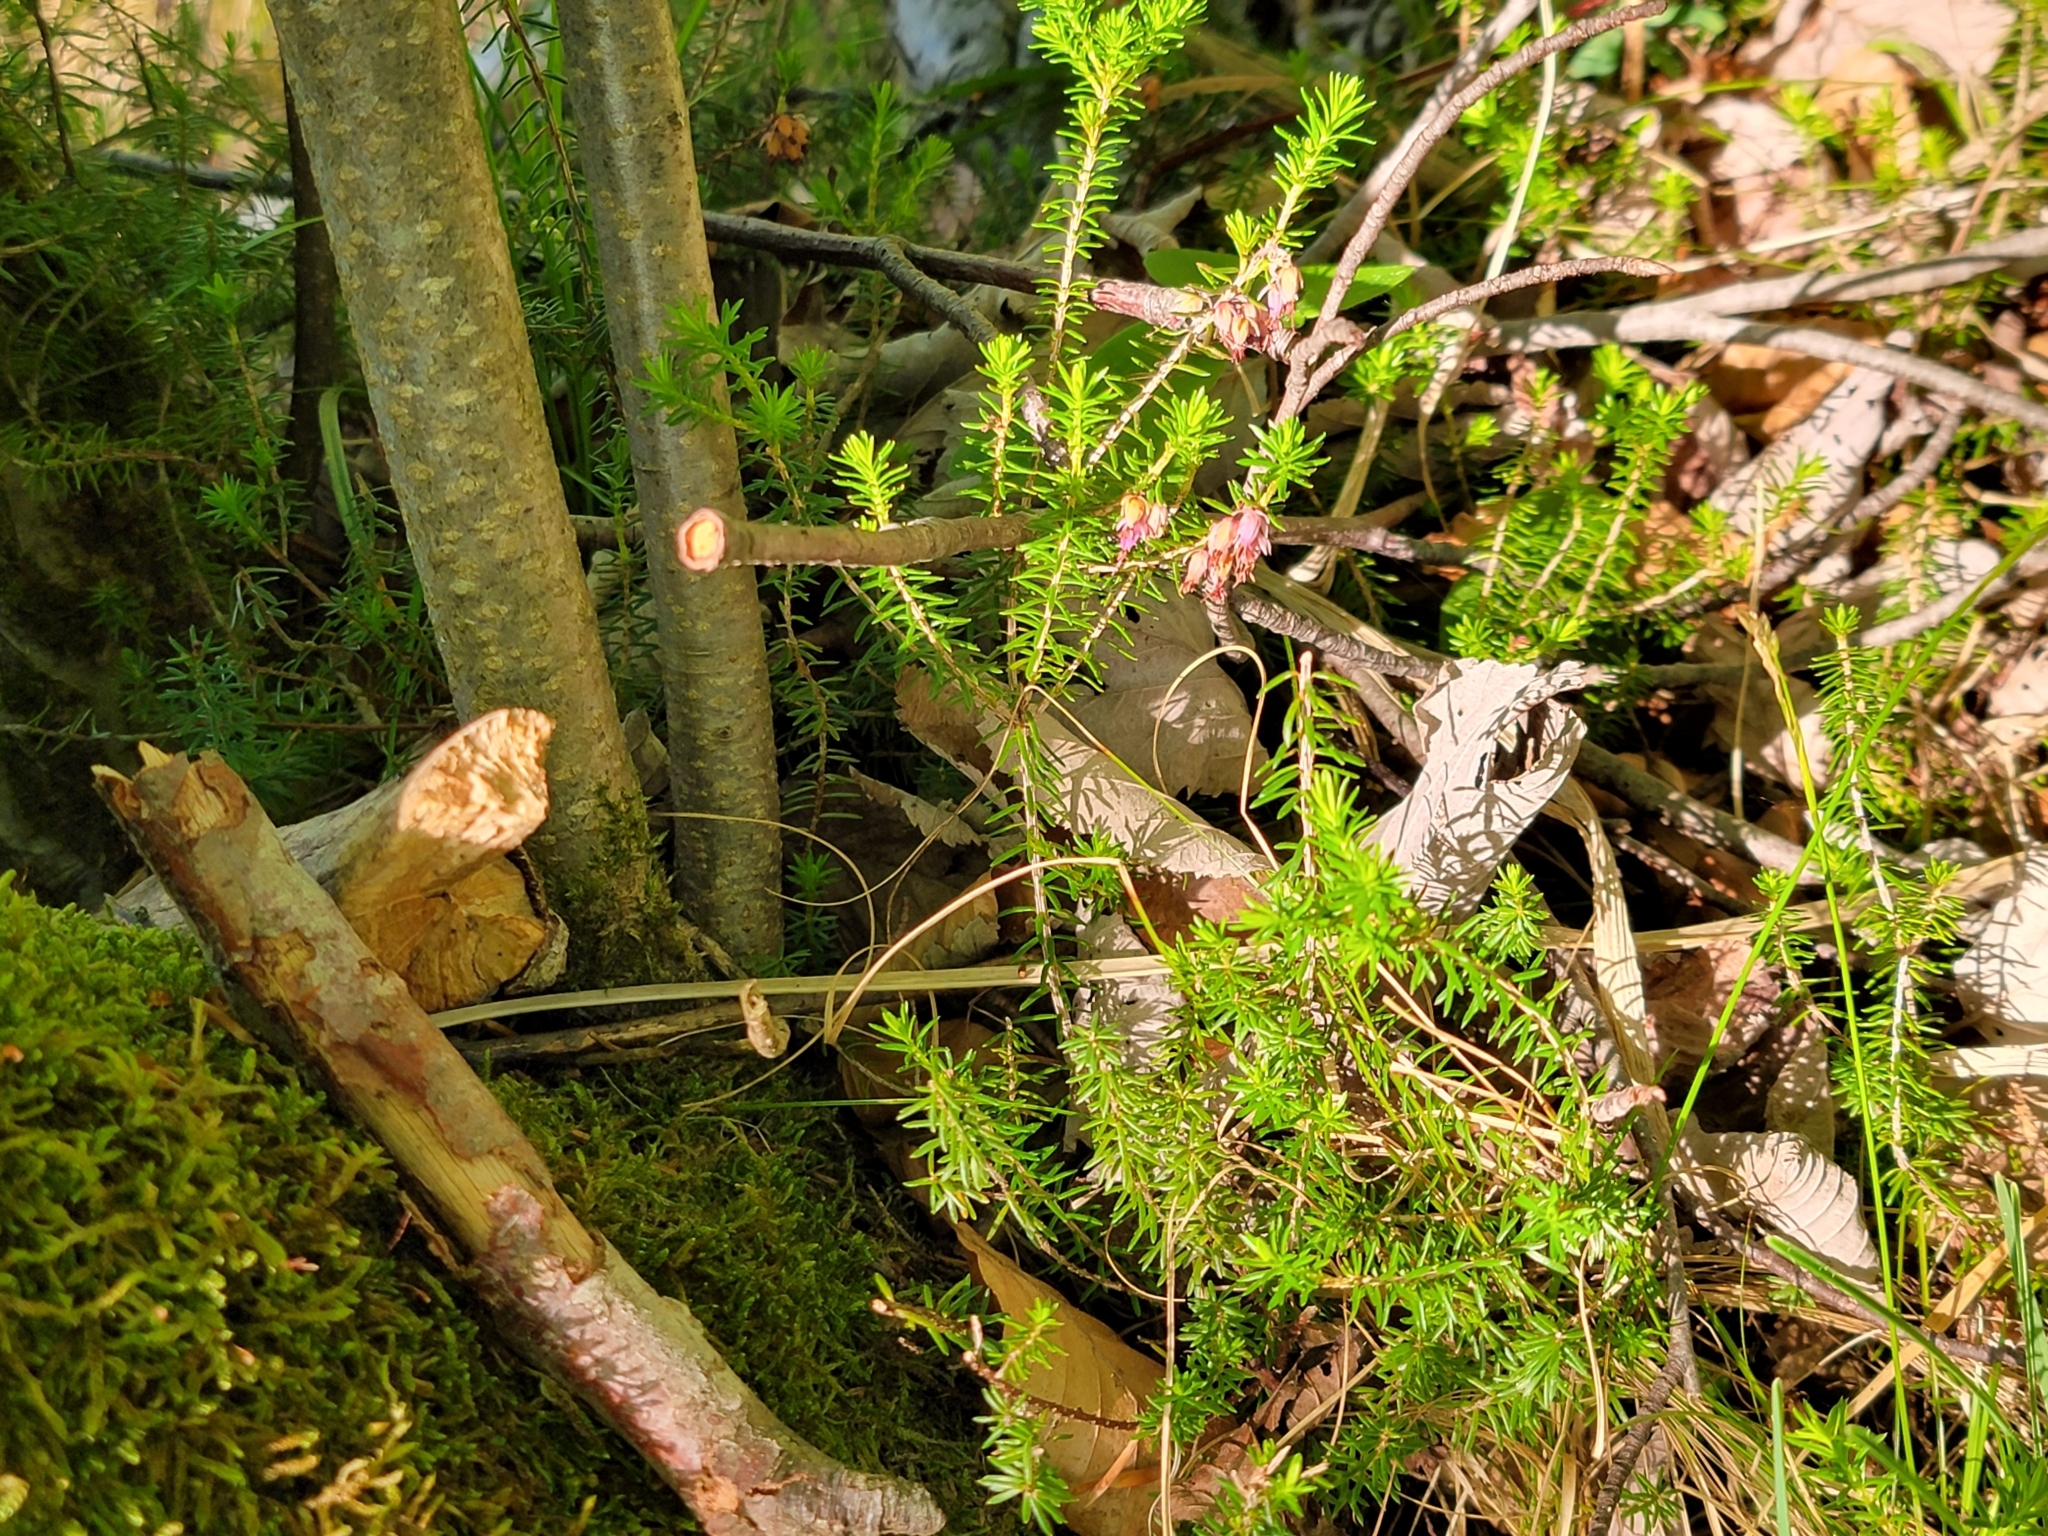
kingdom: Plantae
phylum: Tracheophyta
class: Magnoliopsida
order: Ericales
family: Ericaceae
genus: Erica
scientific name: Erica carnea
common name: Winter heath
